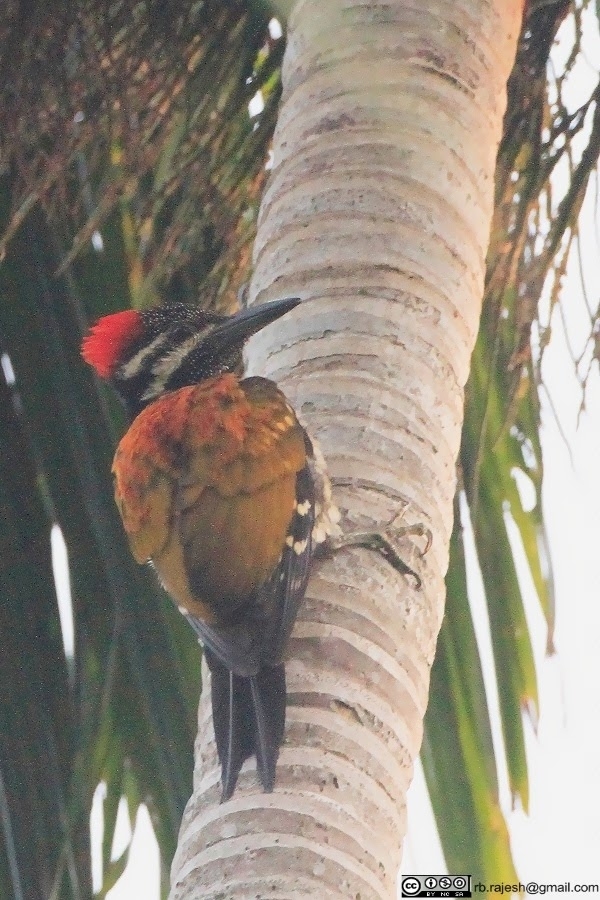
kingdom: Animalia
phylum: Chordata
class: Aves
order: Piciformes
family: Picidae
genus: Dinopium
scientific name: Dinopium benghalense
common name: Black-rumped flameback
